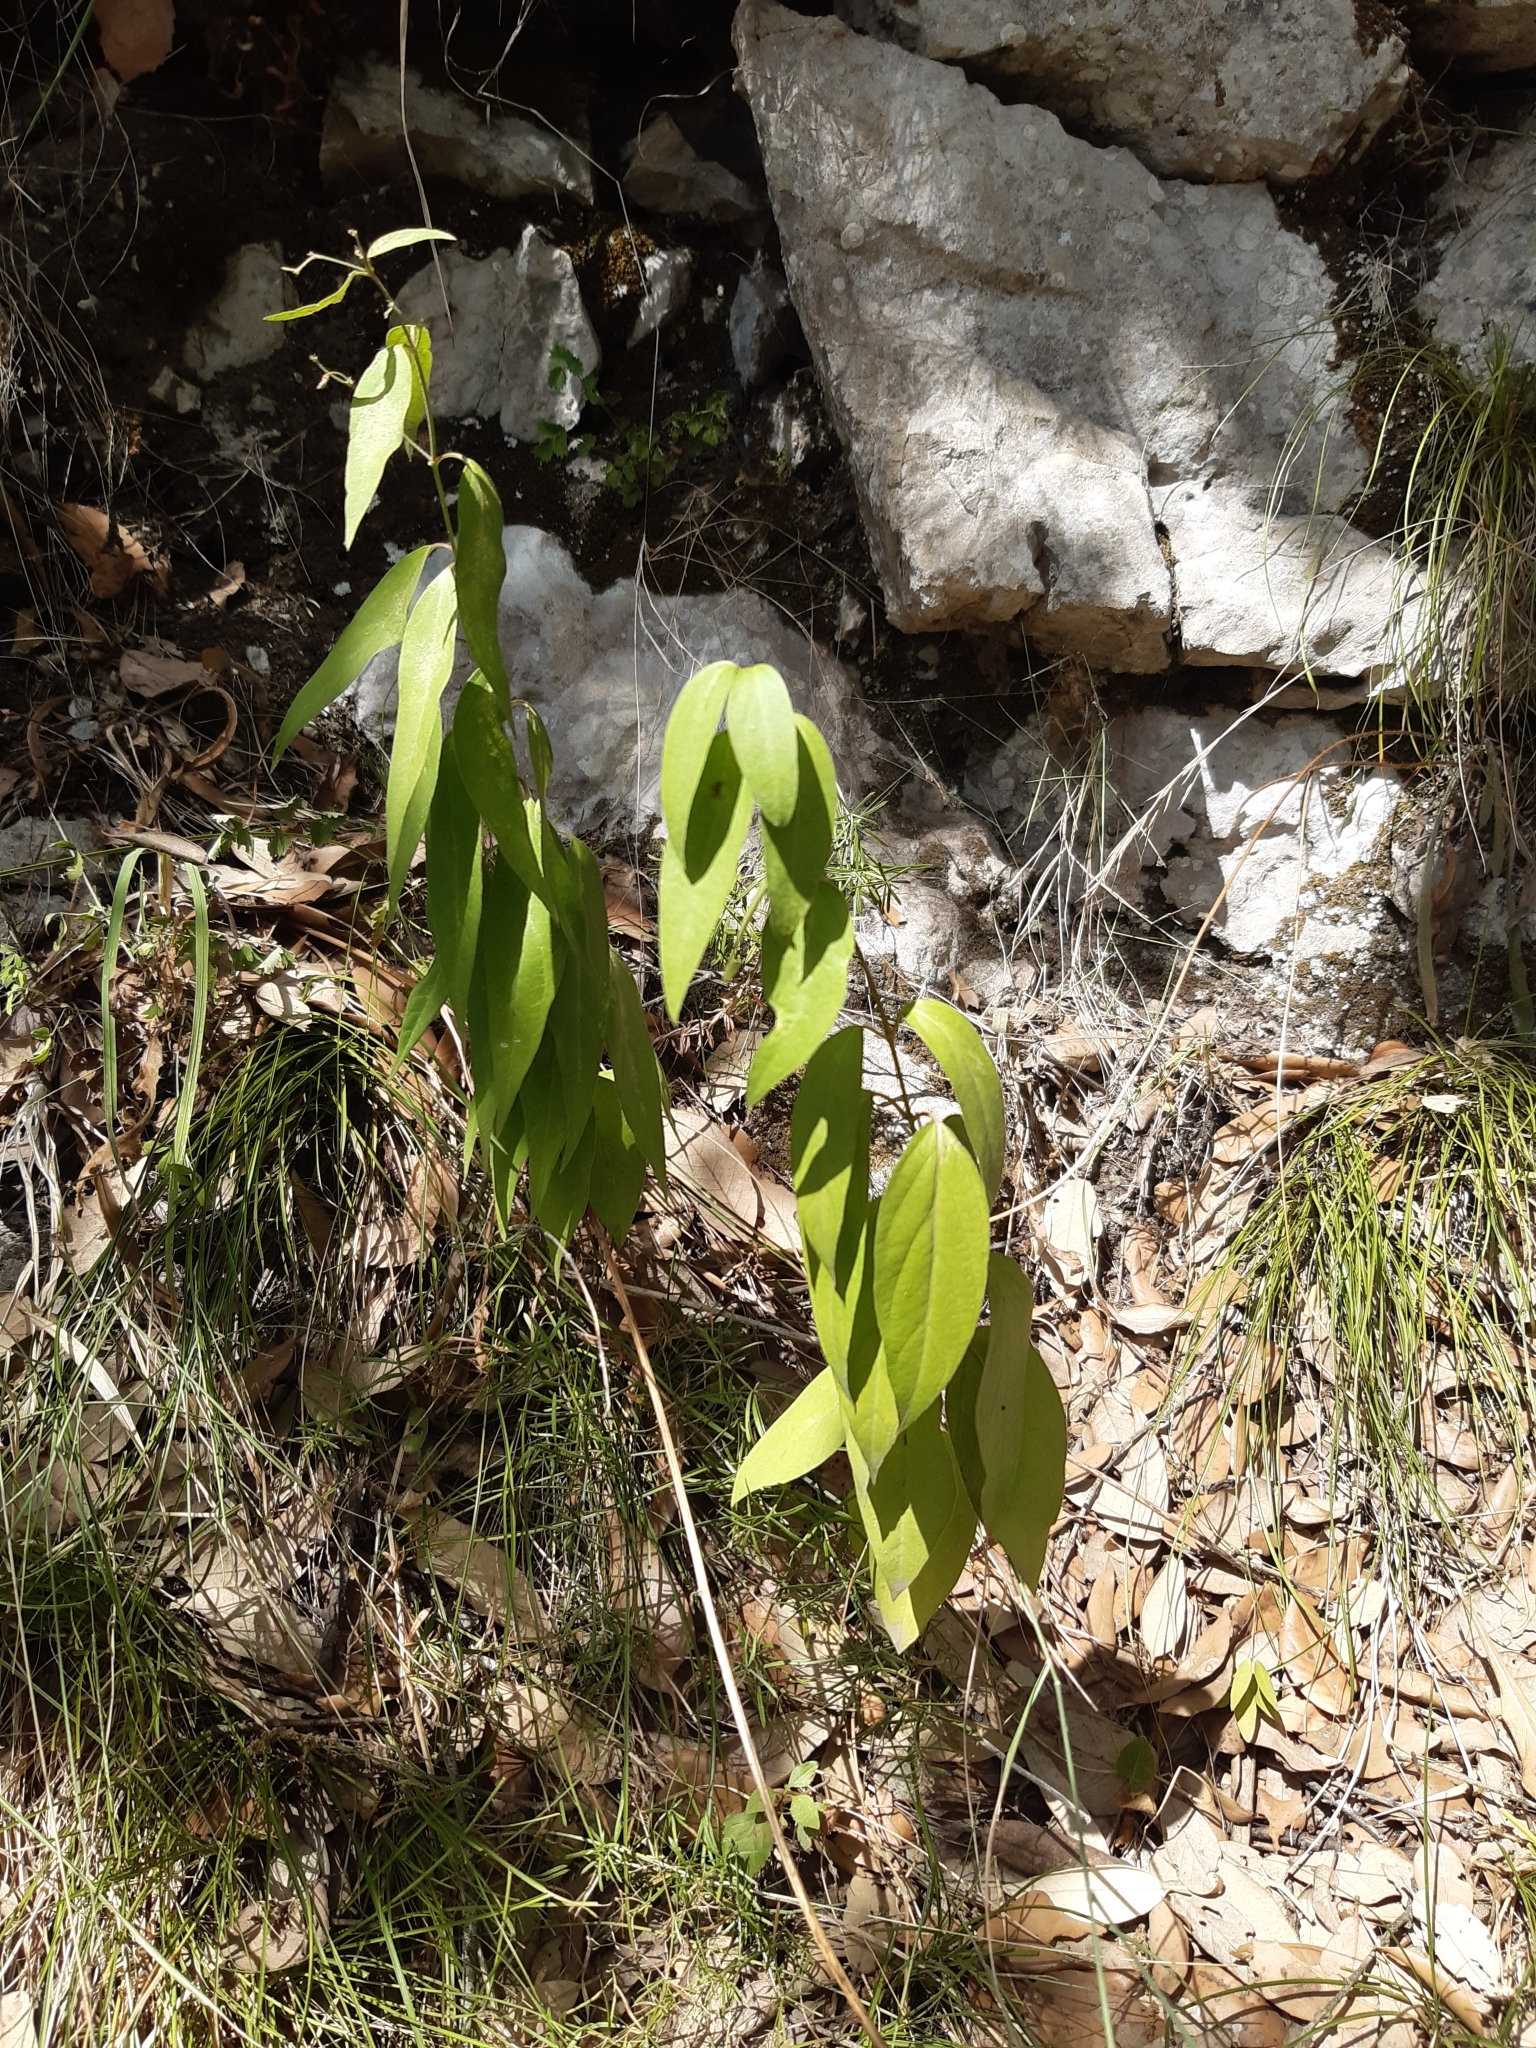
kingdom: Plantae
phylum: Tracheophyta
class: Magnoliopsida
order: Gentianales
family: Apocynaceae
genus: Vincetoxicum
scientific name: Vincetoxicum hirundinaria
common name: White swallowwort
